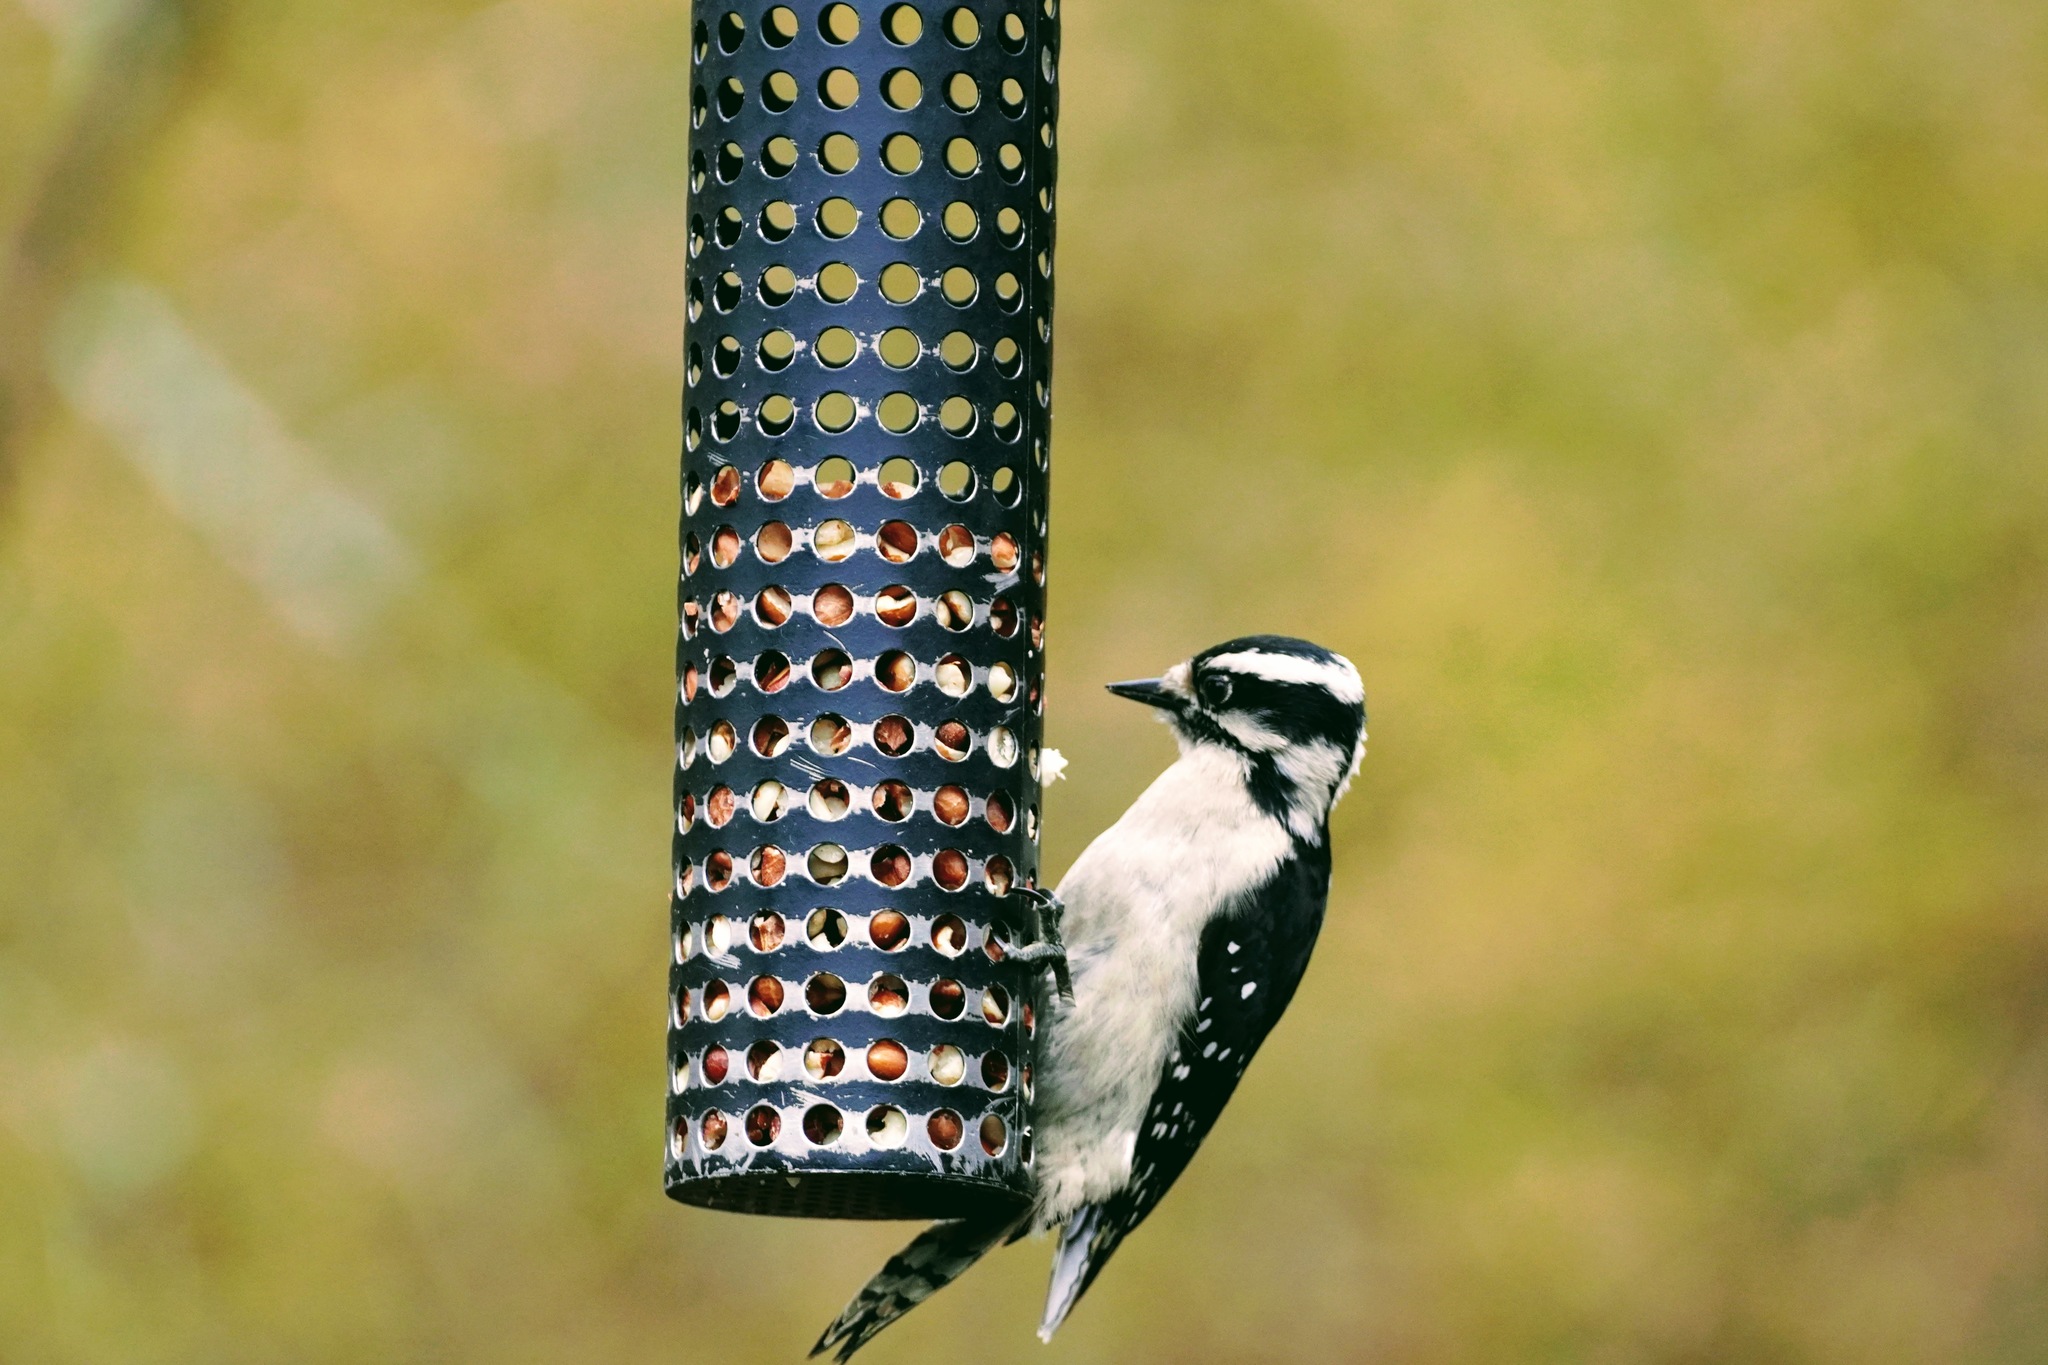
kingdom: Animalia
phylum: Chordata
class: Aves
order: Piciformes
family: Picidae
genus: Dryobates
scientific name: Dryobates pubescens
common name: Downy woodpecker
